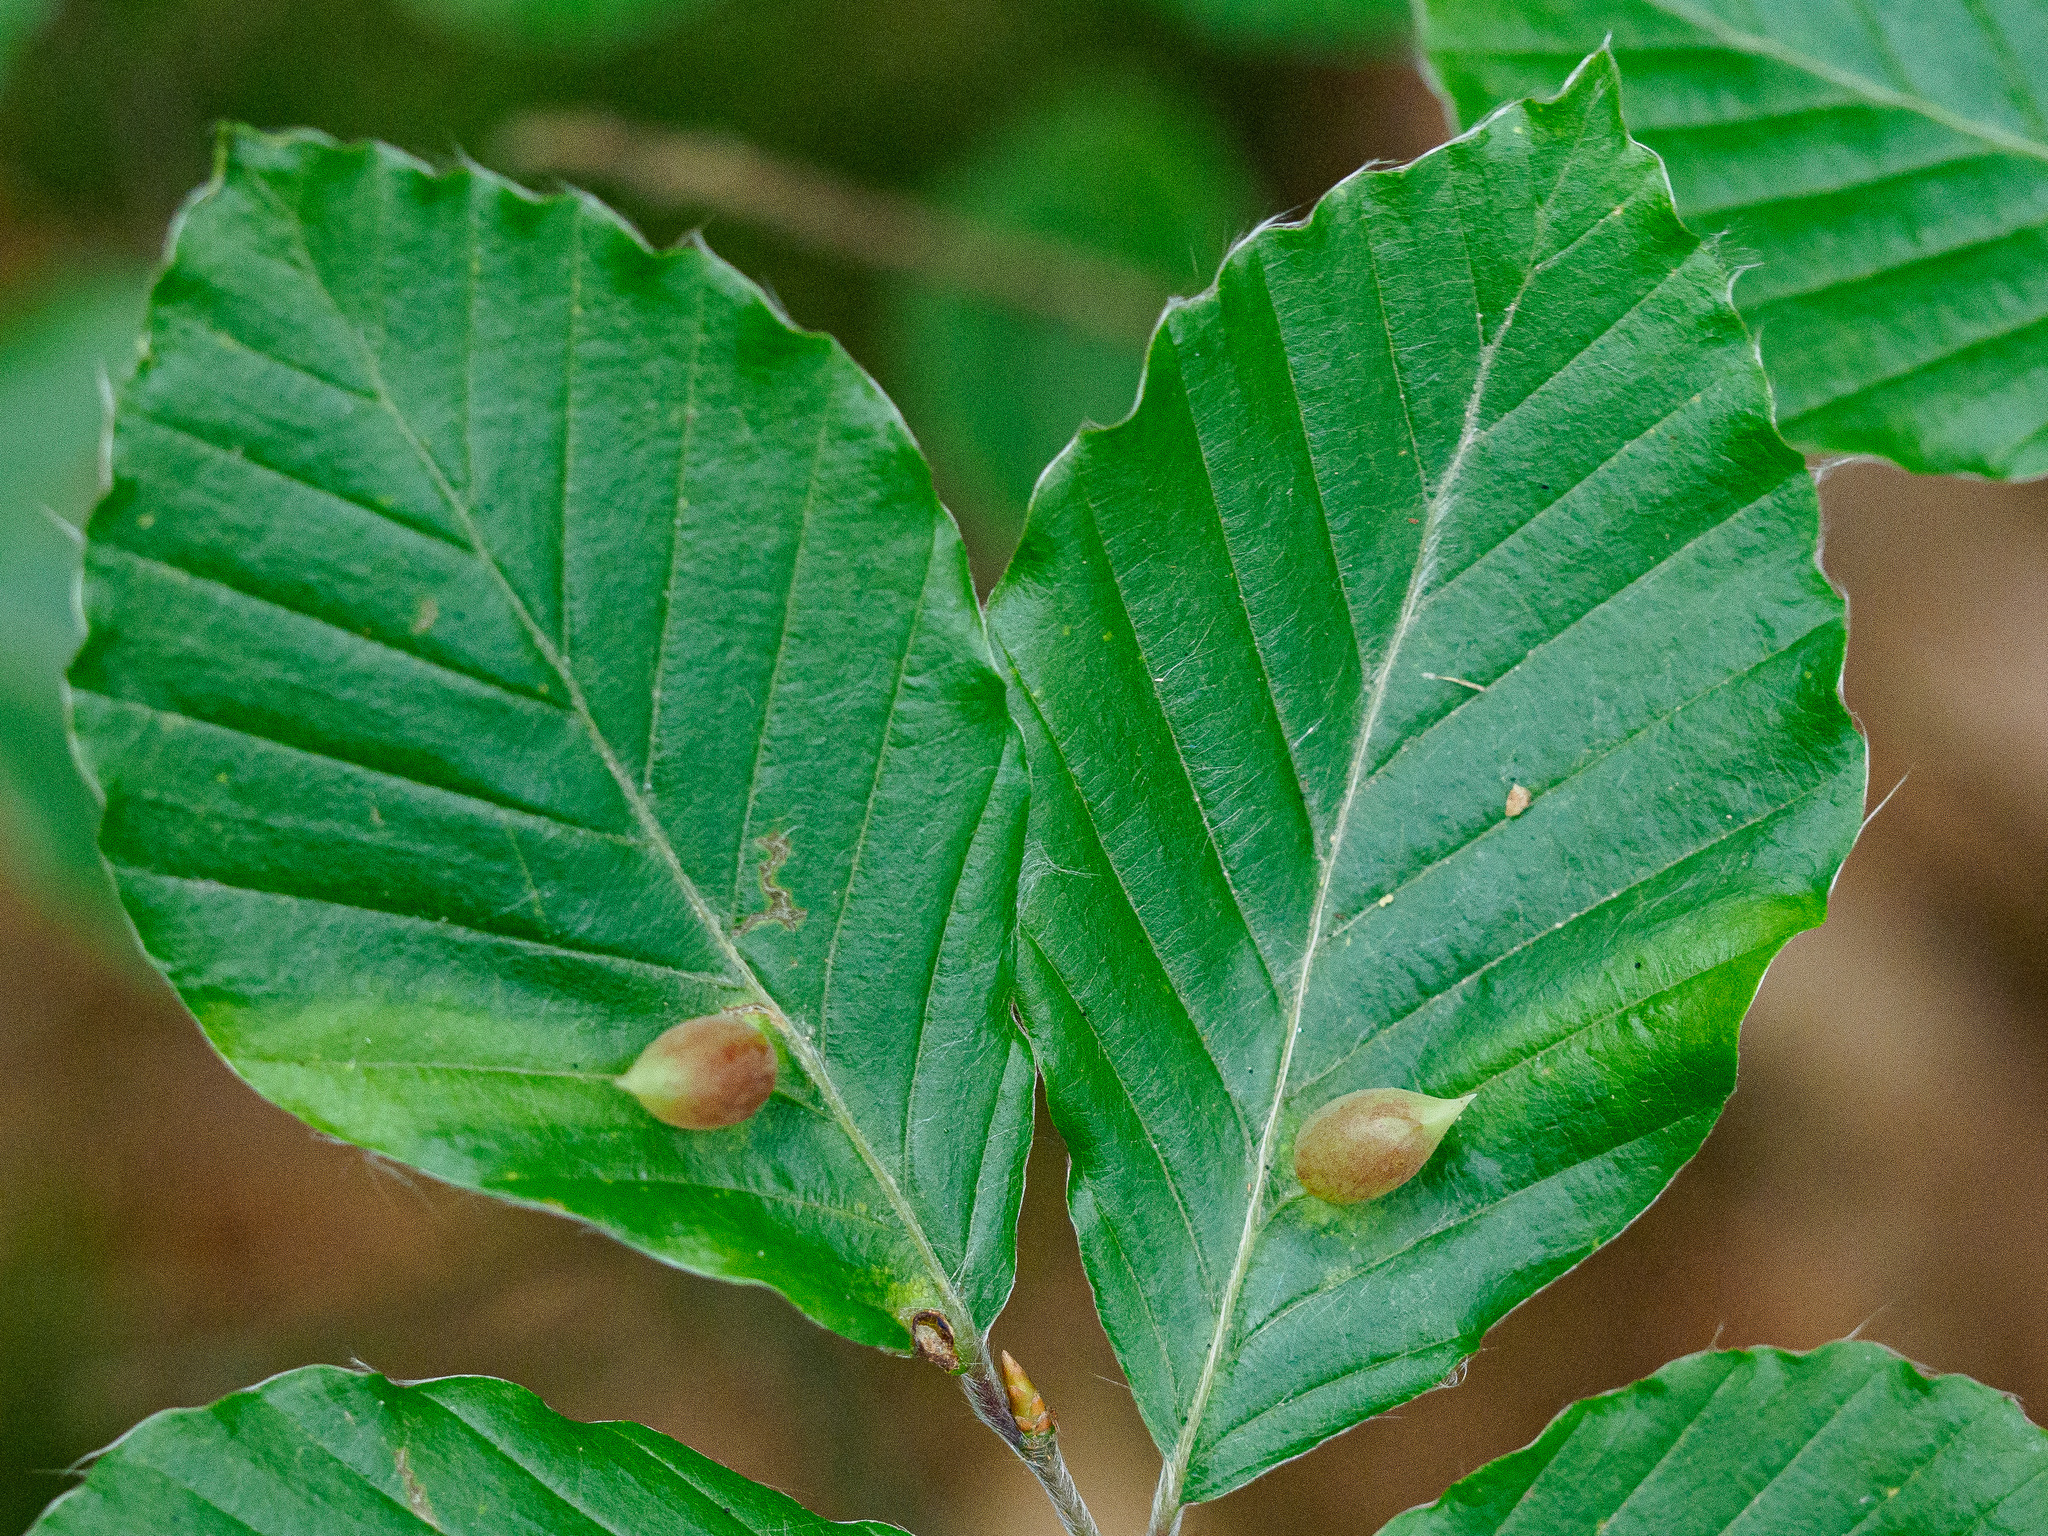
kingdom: Animalia
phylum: Arthropoda
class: Insecta
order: Diptera
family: Cecidomyiidae
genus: Mikiola
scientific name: Mikiola fagi
